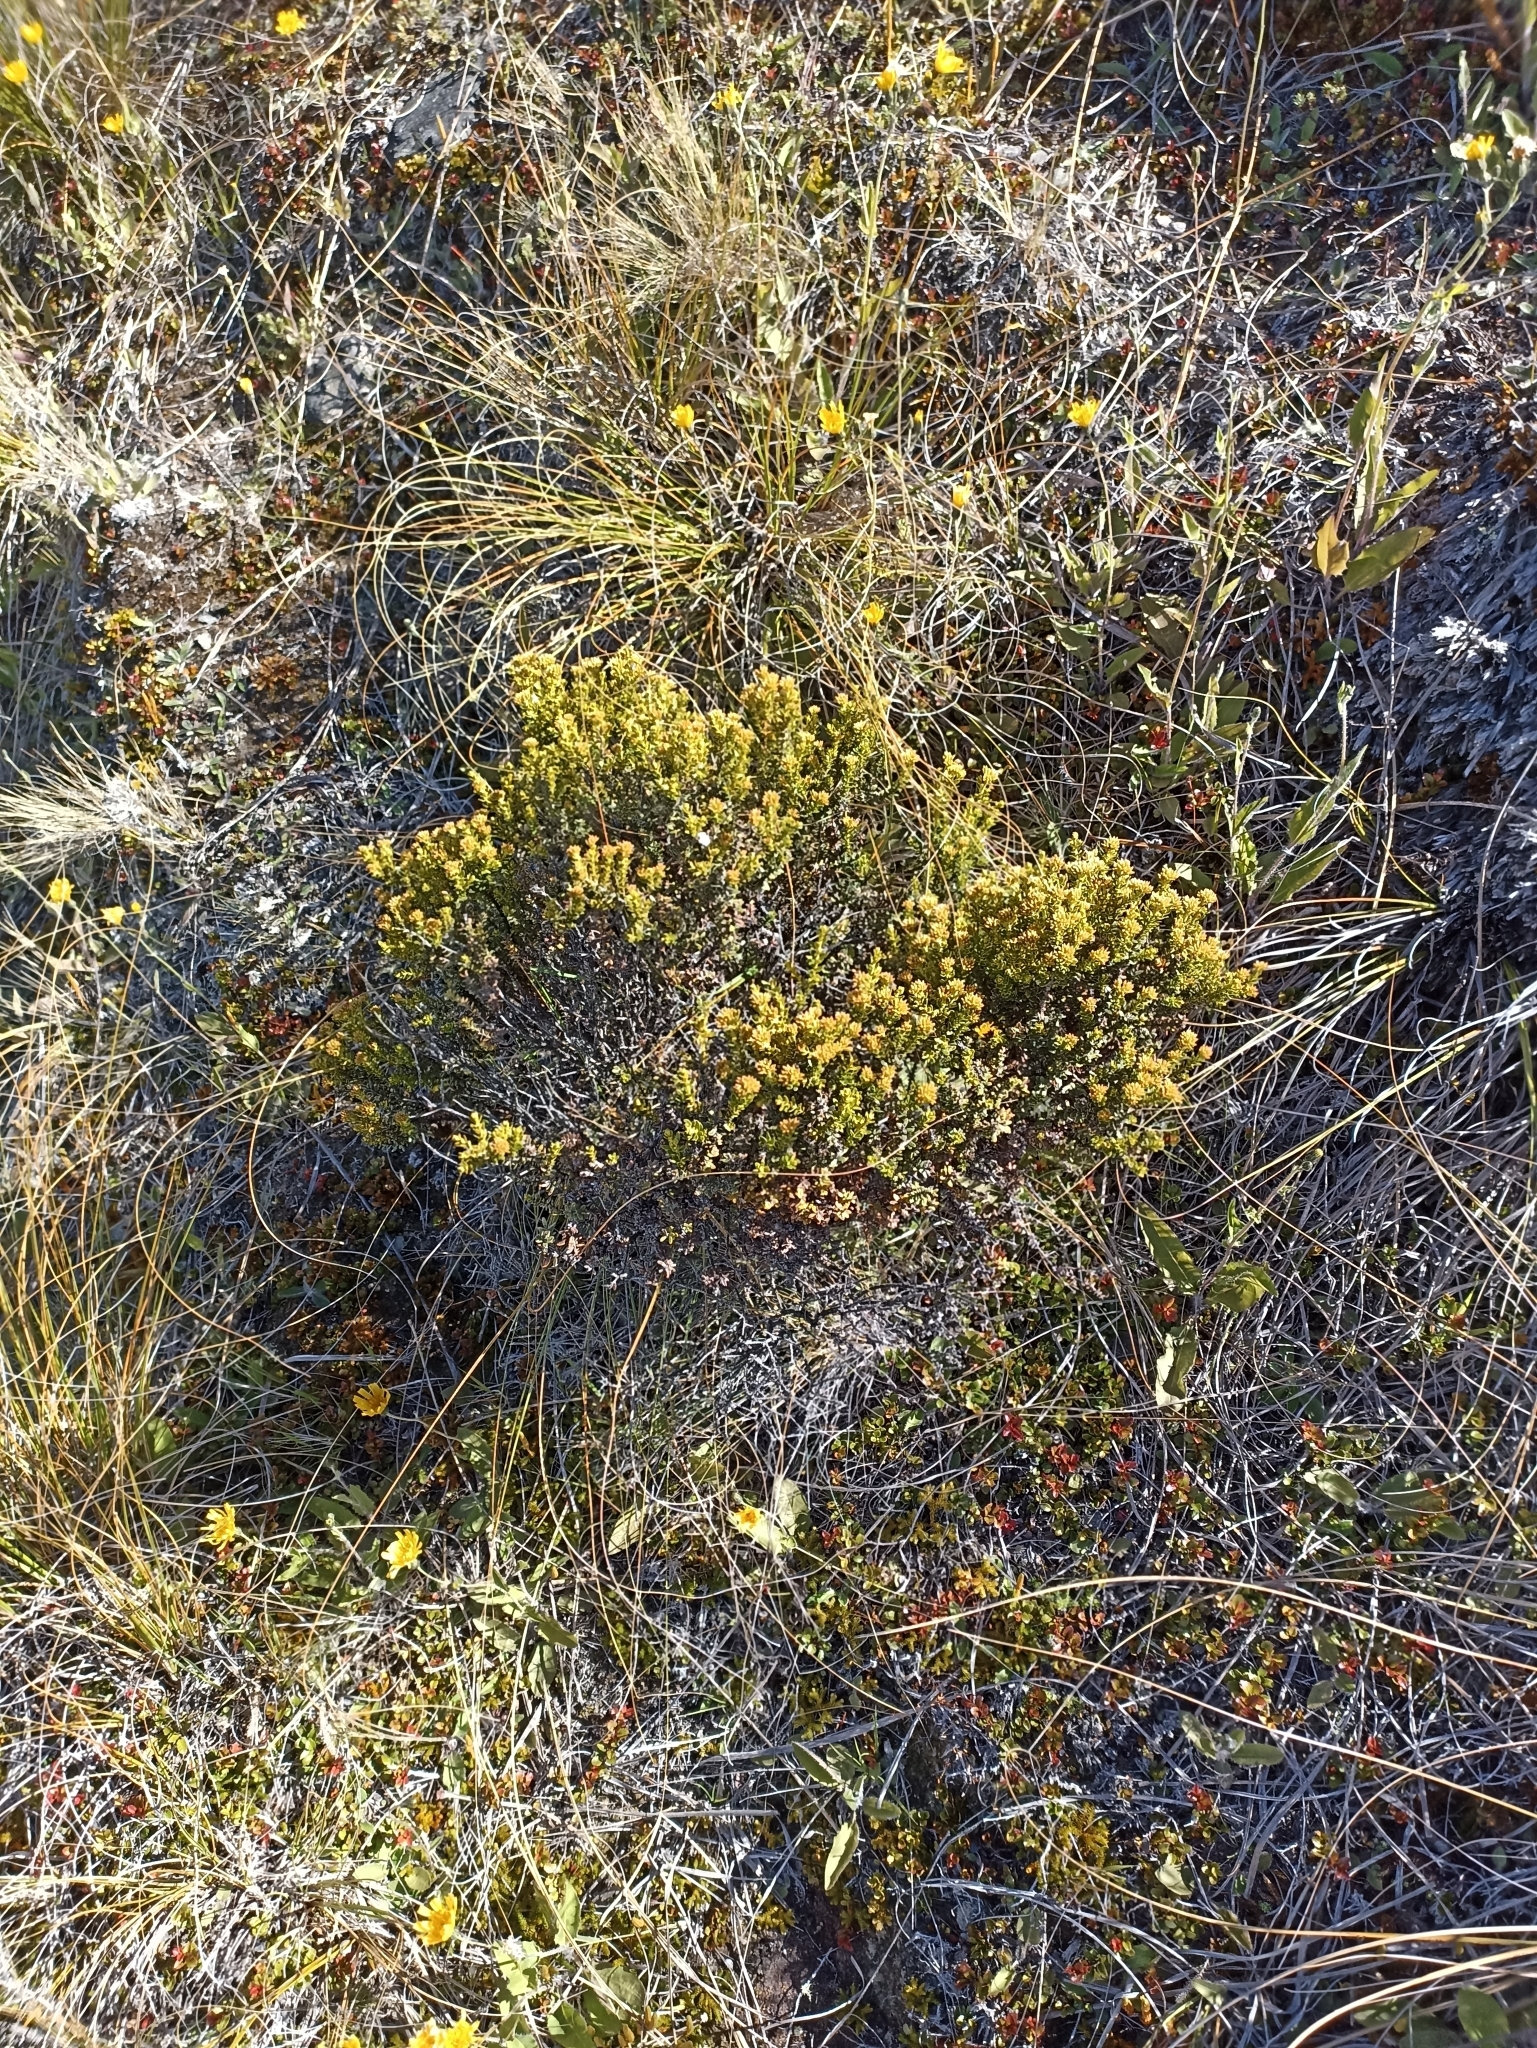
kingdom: Plantae
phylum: Tracheophyta
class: Magnoliopsida
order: Asterales
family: Asteraceae
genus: Ozothamnus
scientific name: Ozothamnus leptophyllus
